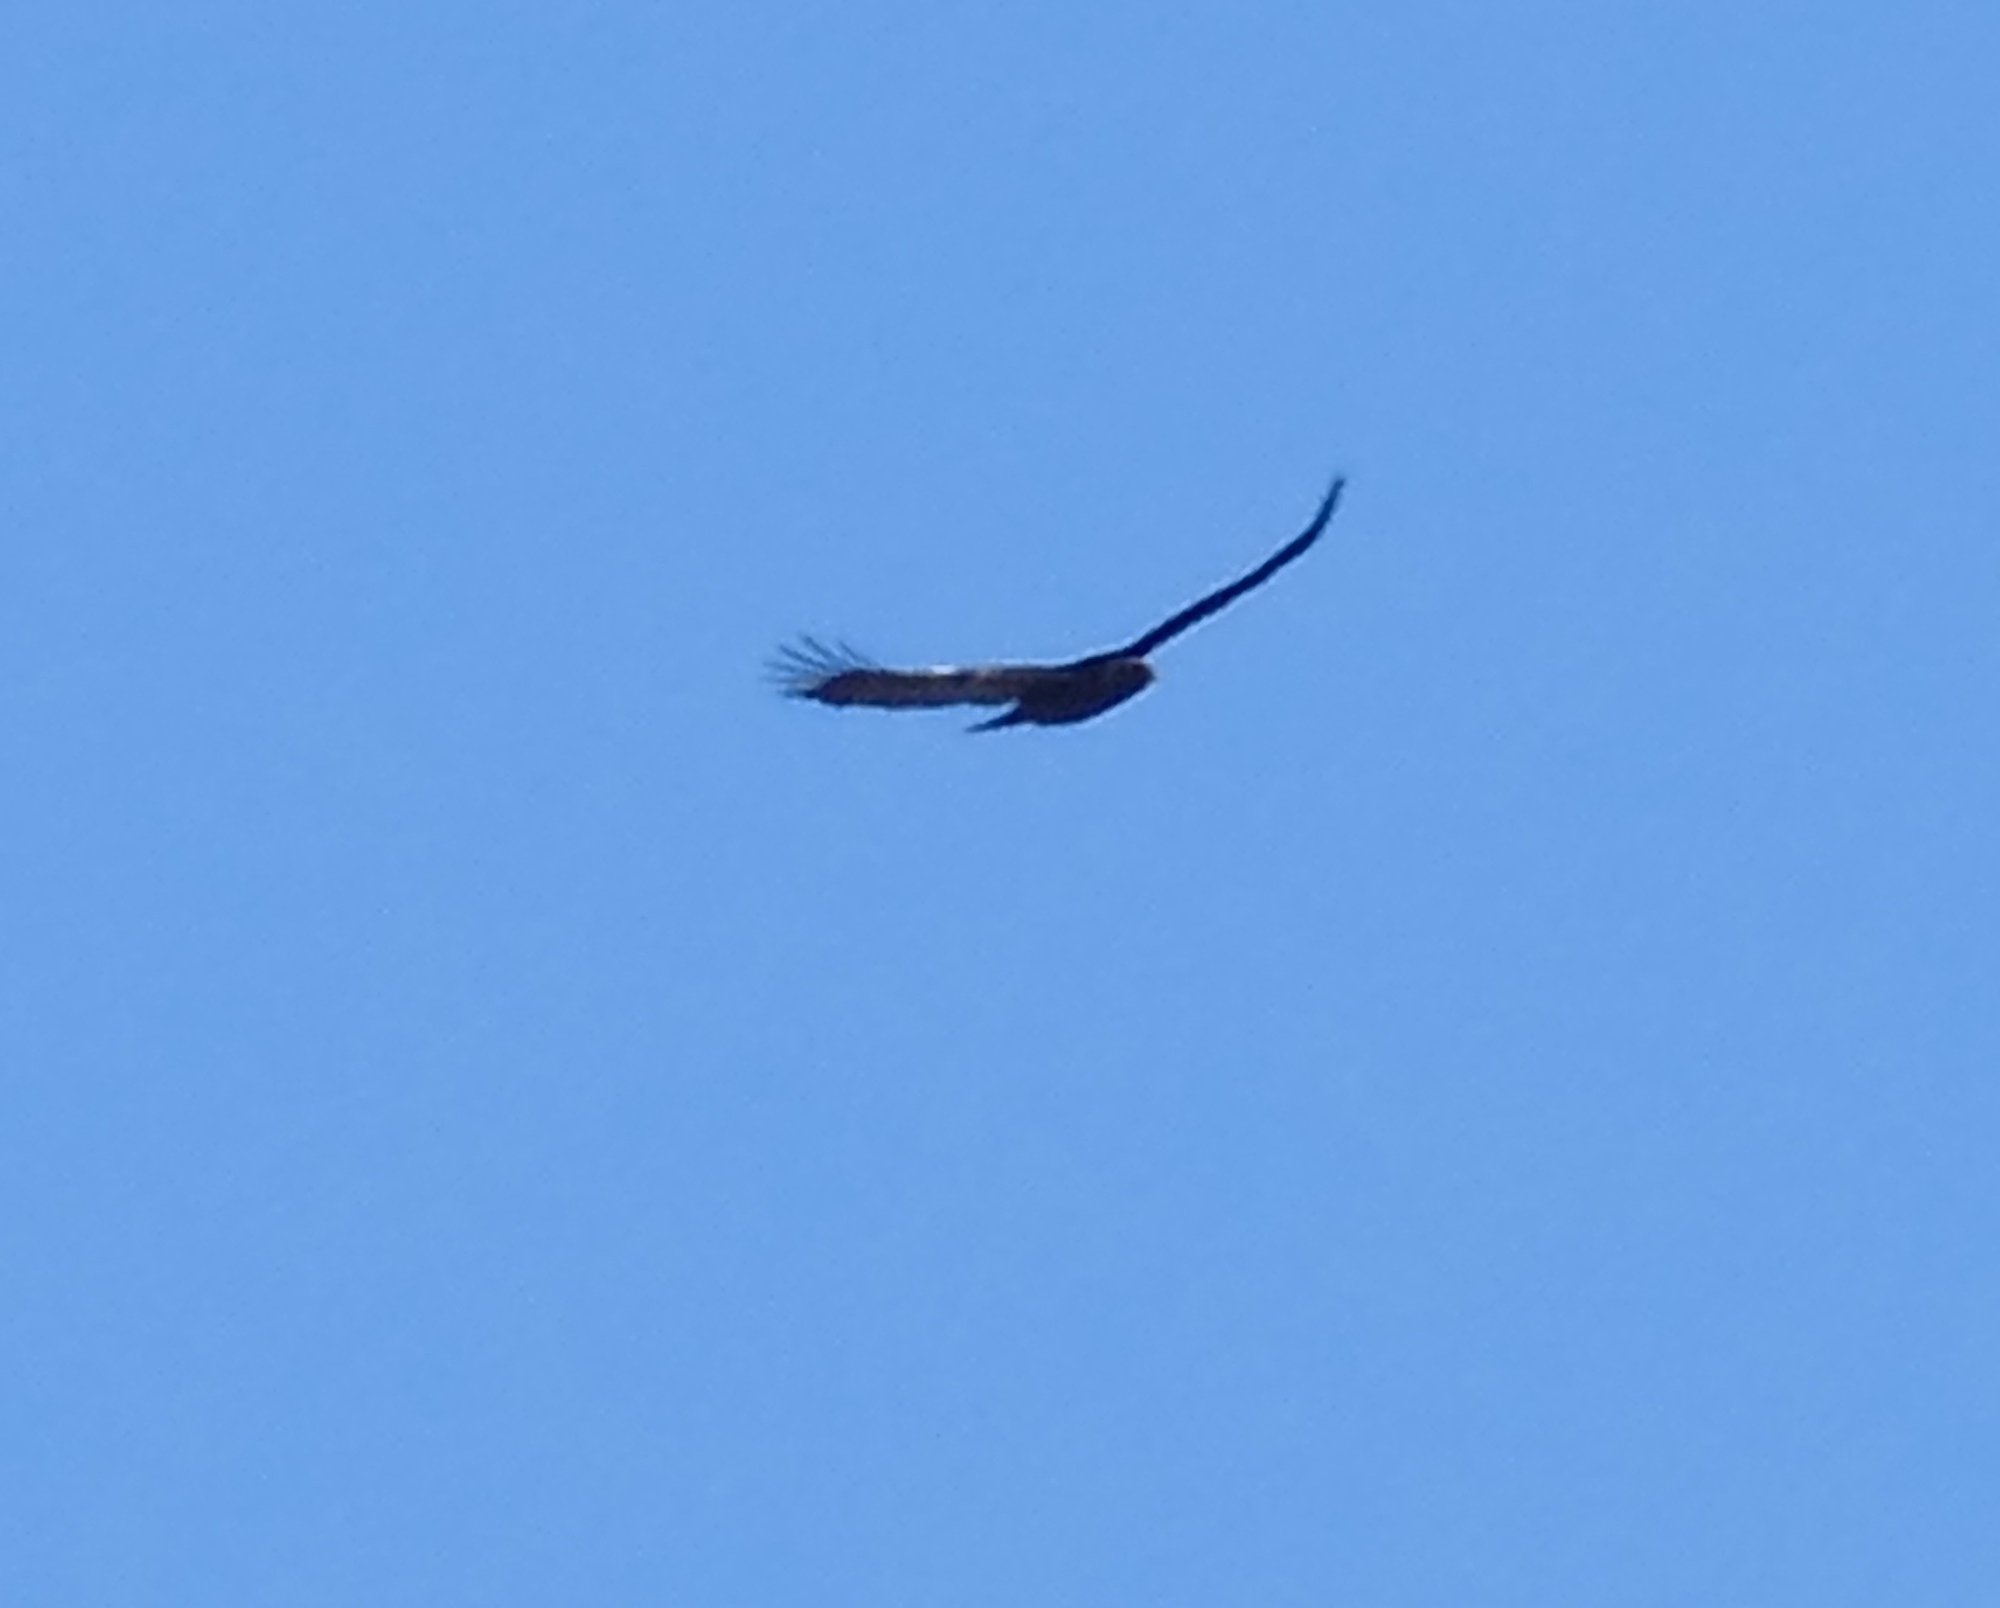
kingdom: Animalia
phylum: Chordata
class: Aves
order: Accipitriformes
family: Accipitridae
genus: Aquila
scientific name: Aquila chrysaetos
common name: Golden eagle
